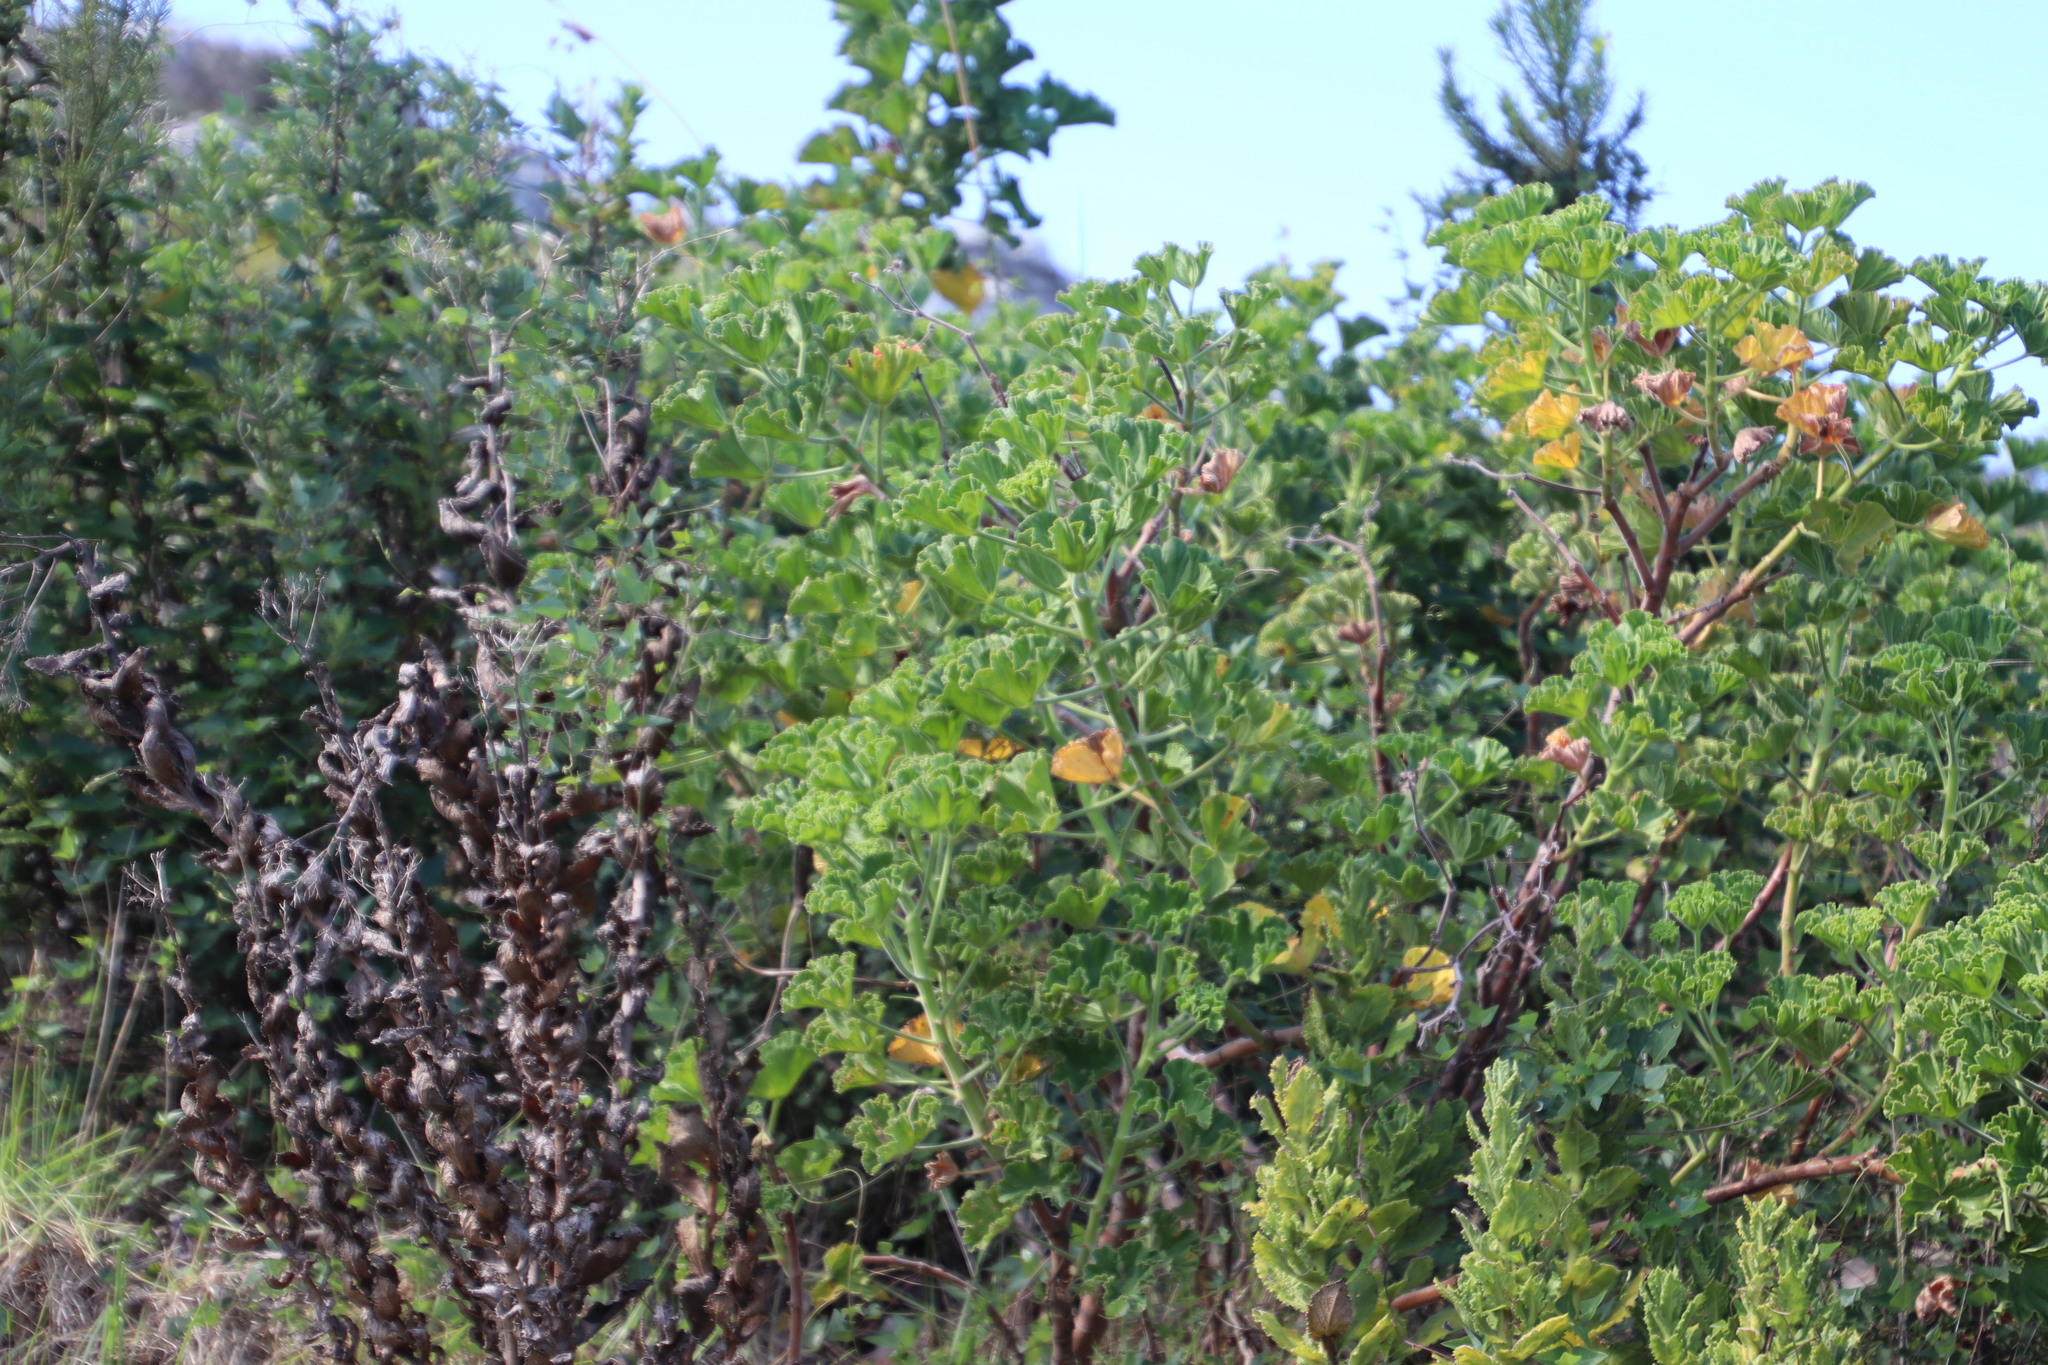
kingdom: Plantae
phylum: Tracheophyta
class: Magnoliopsida
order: Geraniales
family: Geraniaceae
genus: Pelargonium
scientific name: Pelargonium cucullatum
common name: Tree pelargonium
